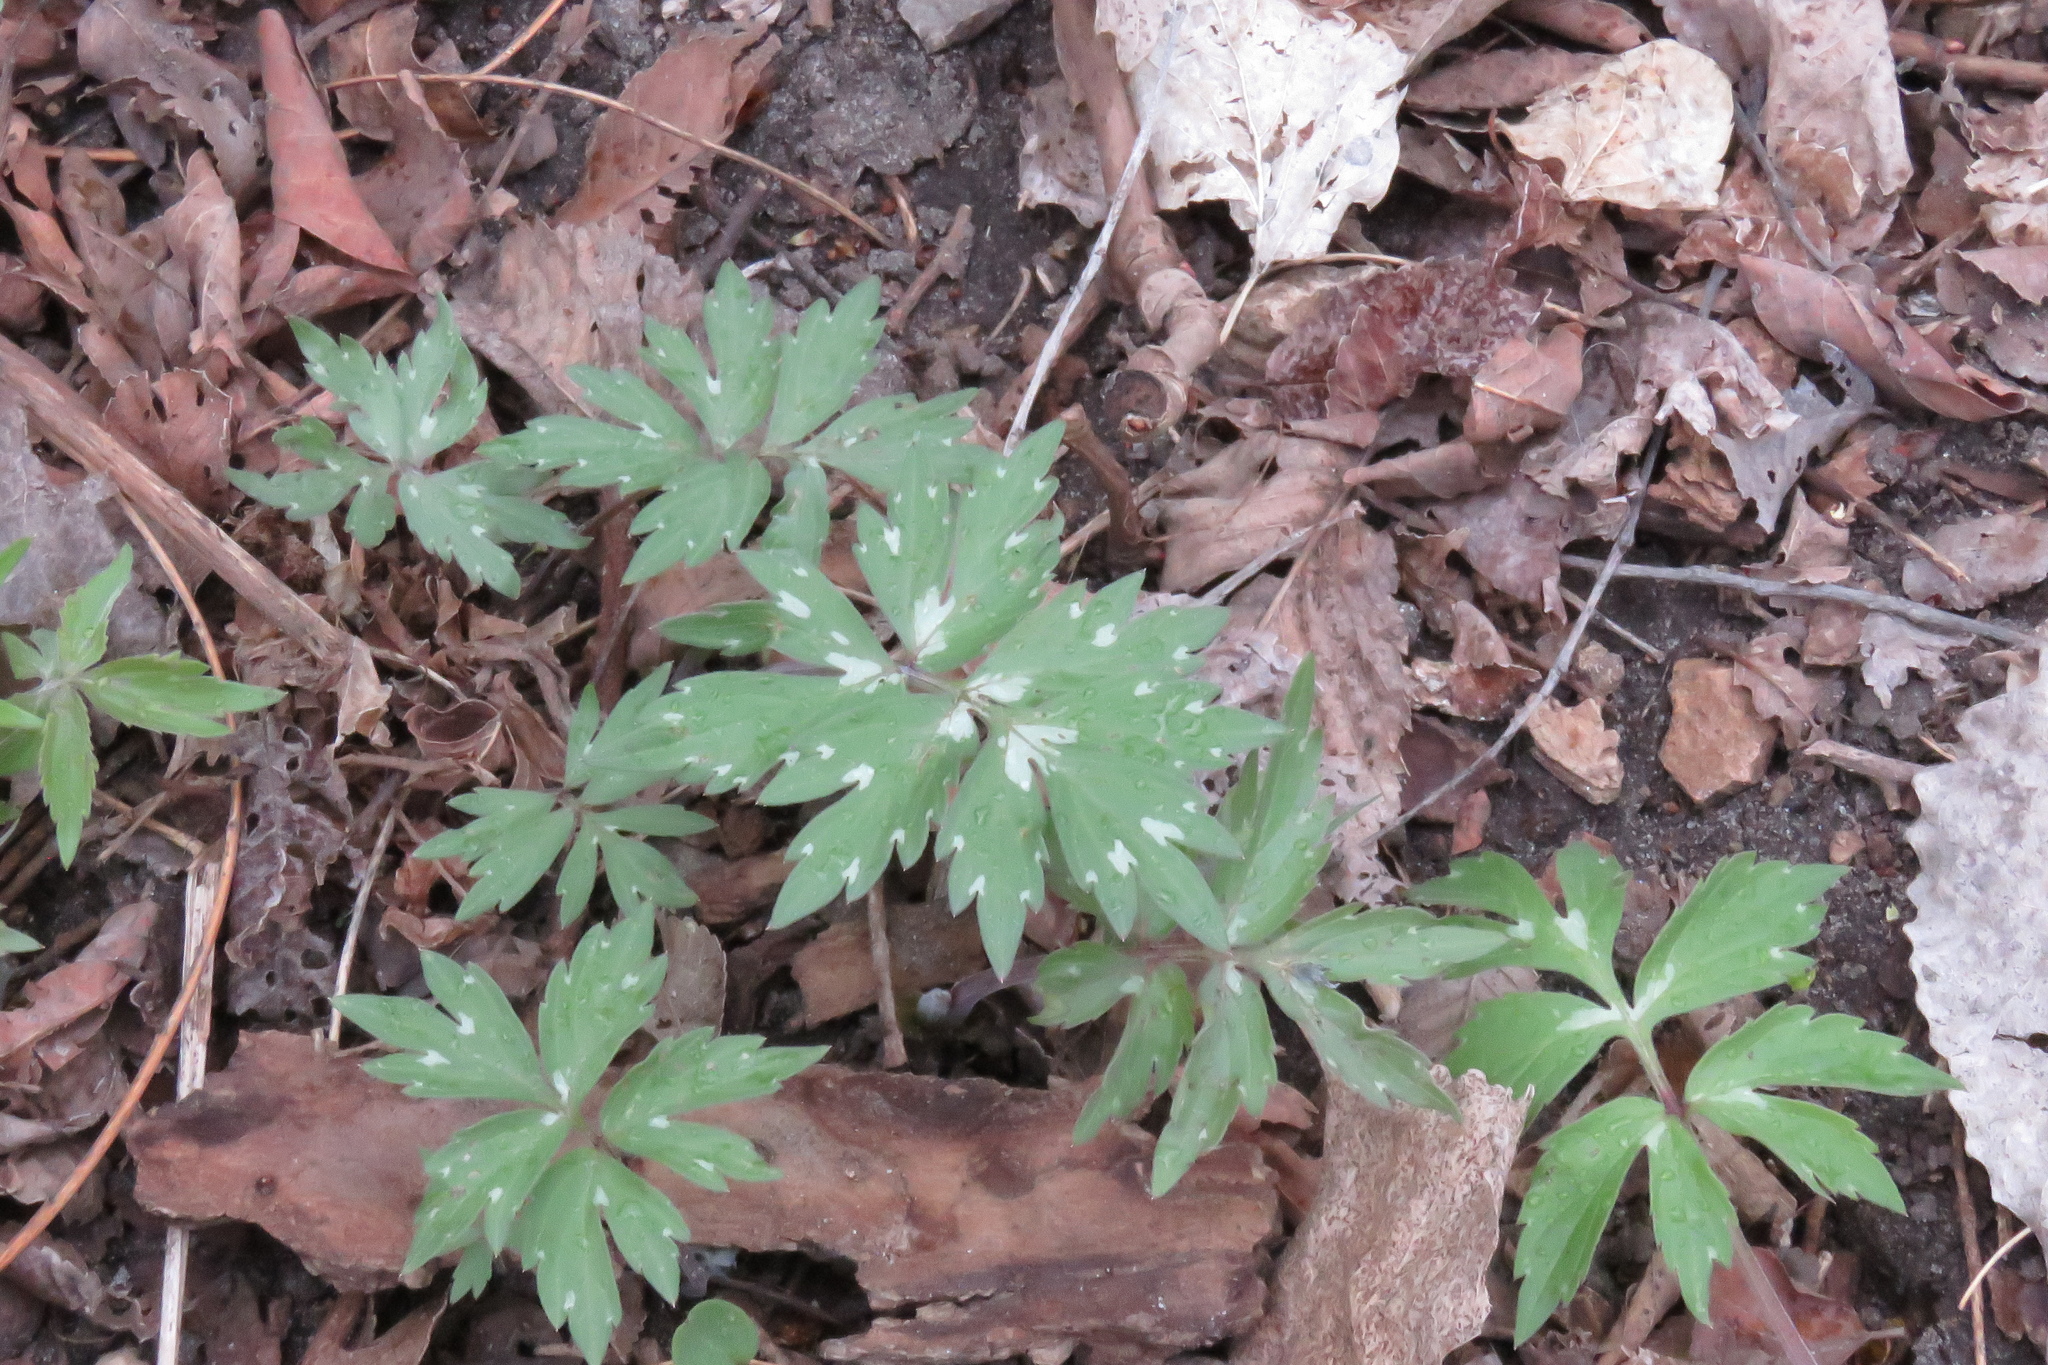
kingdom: Plantae
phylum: Tracheophyta
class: Magnoliopsida
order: Boraginales
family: Hydrophyllaceae
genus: Hydrophyllum
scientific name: Hydrophyllum virginianum
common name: Virginia waterleaf
